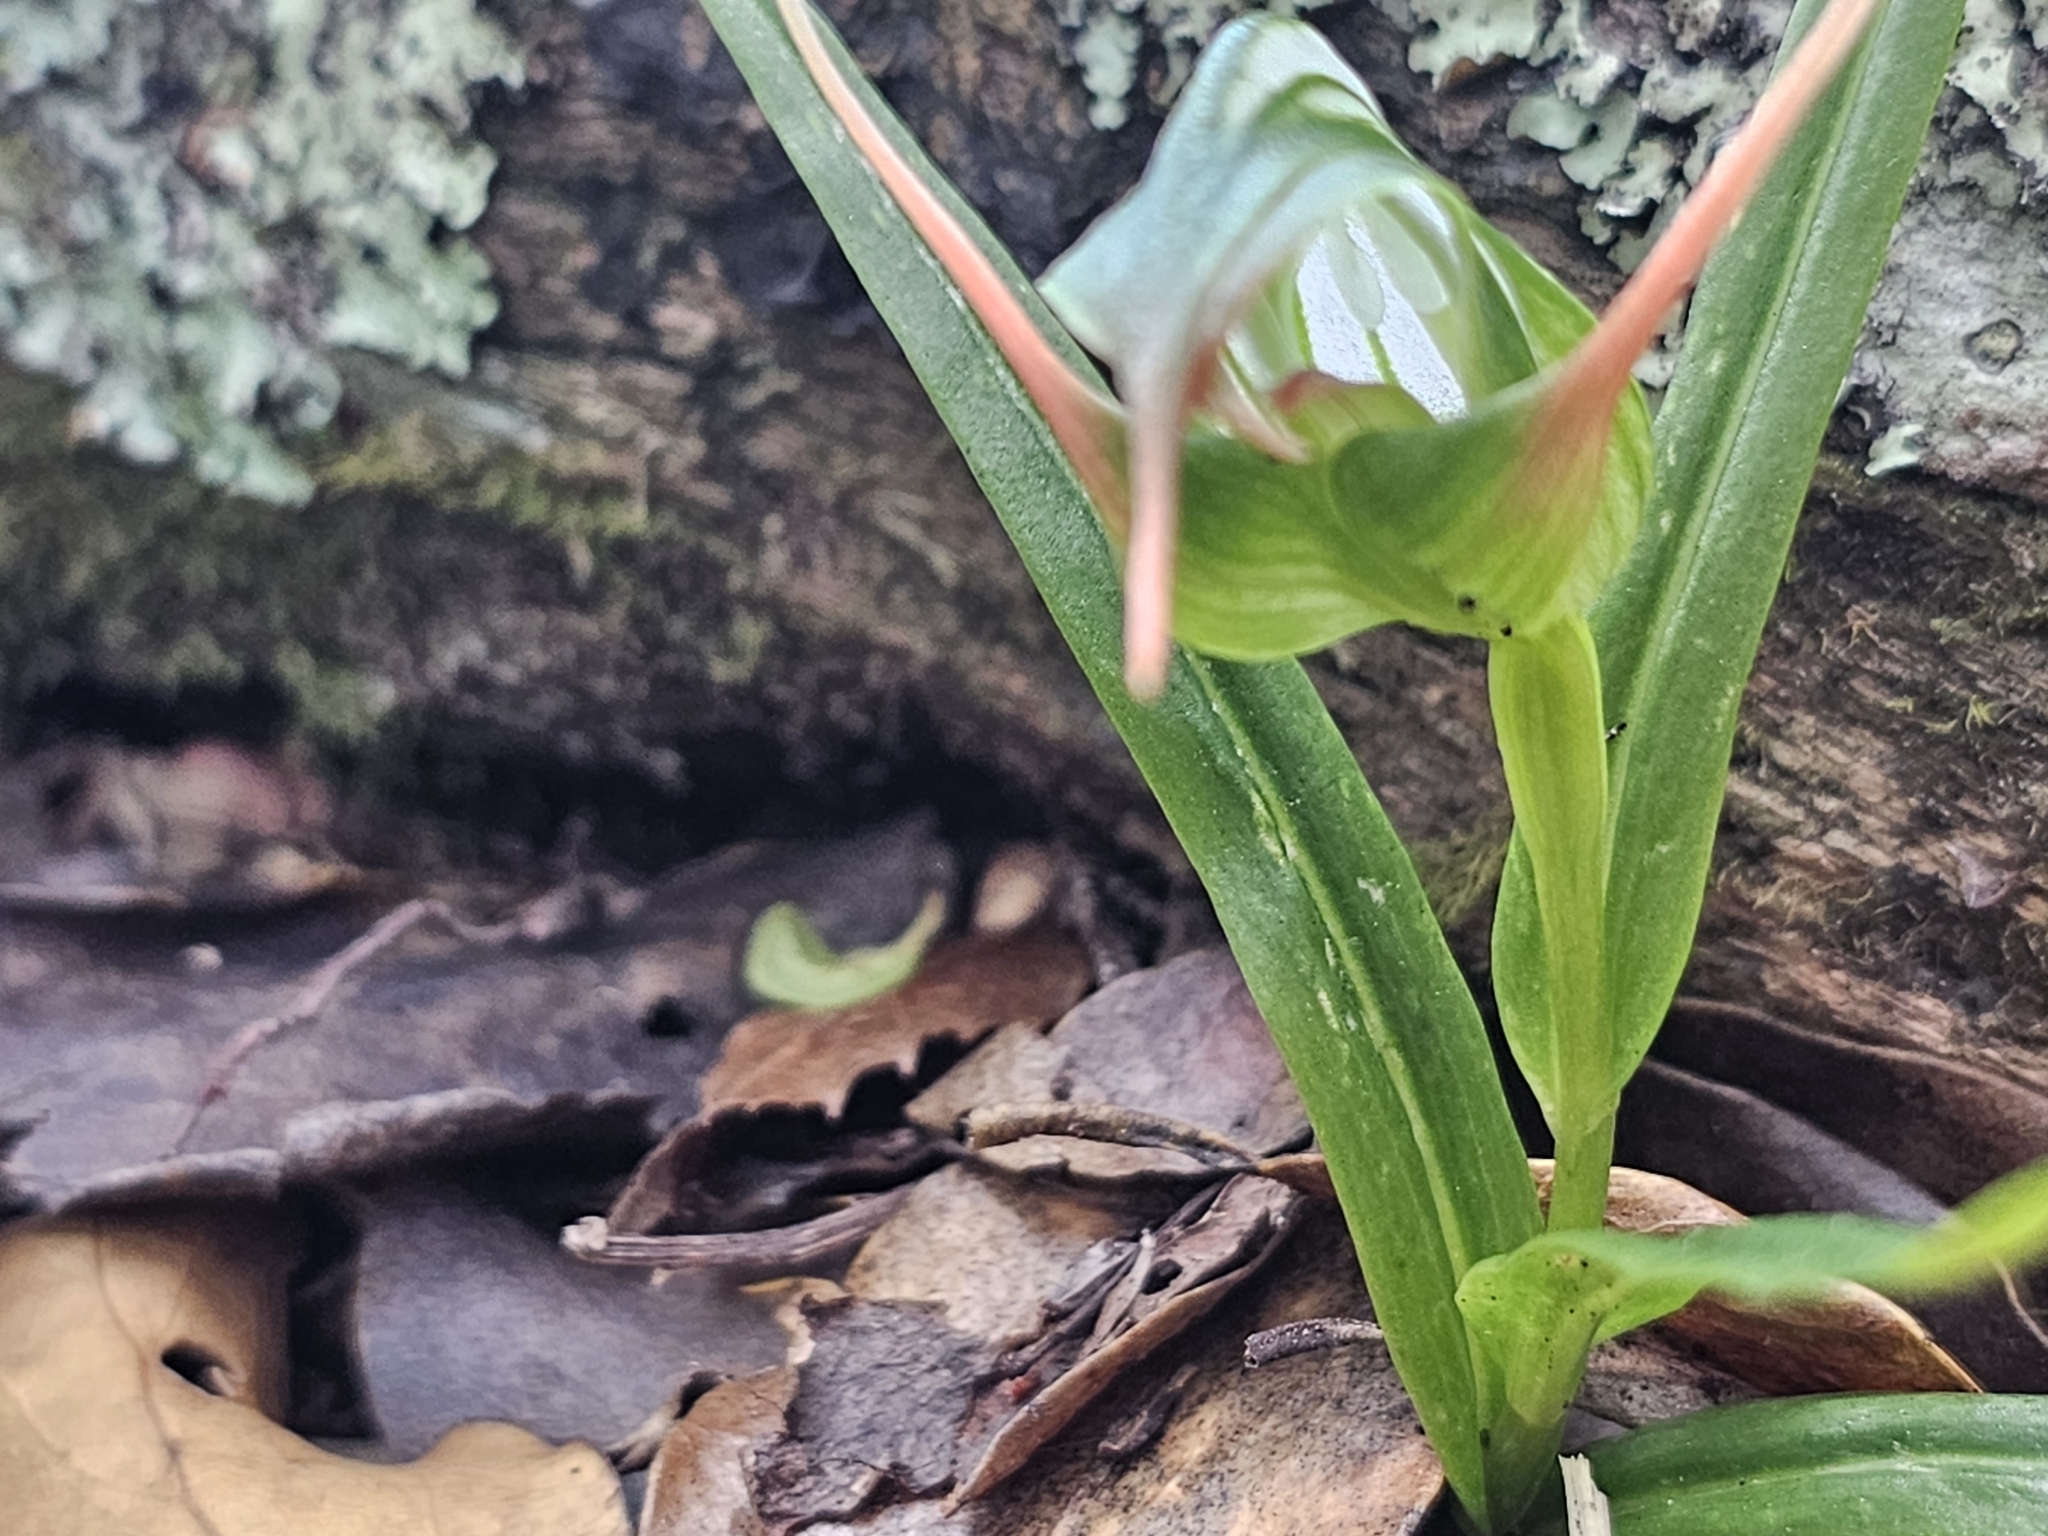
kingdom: Plantae
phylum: Tracheophyta
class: Liliopsida
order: Asparagales
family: Orchidaceae
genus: Pterostylis
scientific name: Pterostylis banksii
